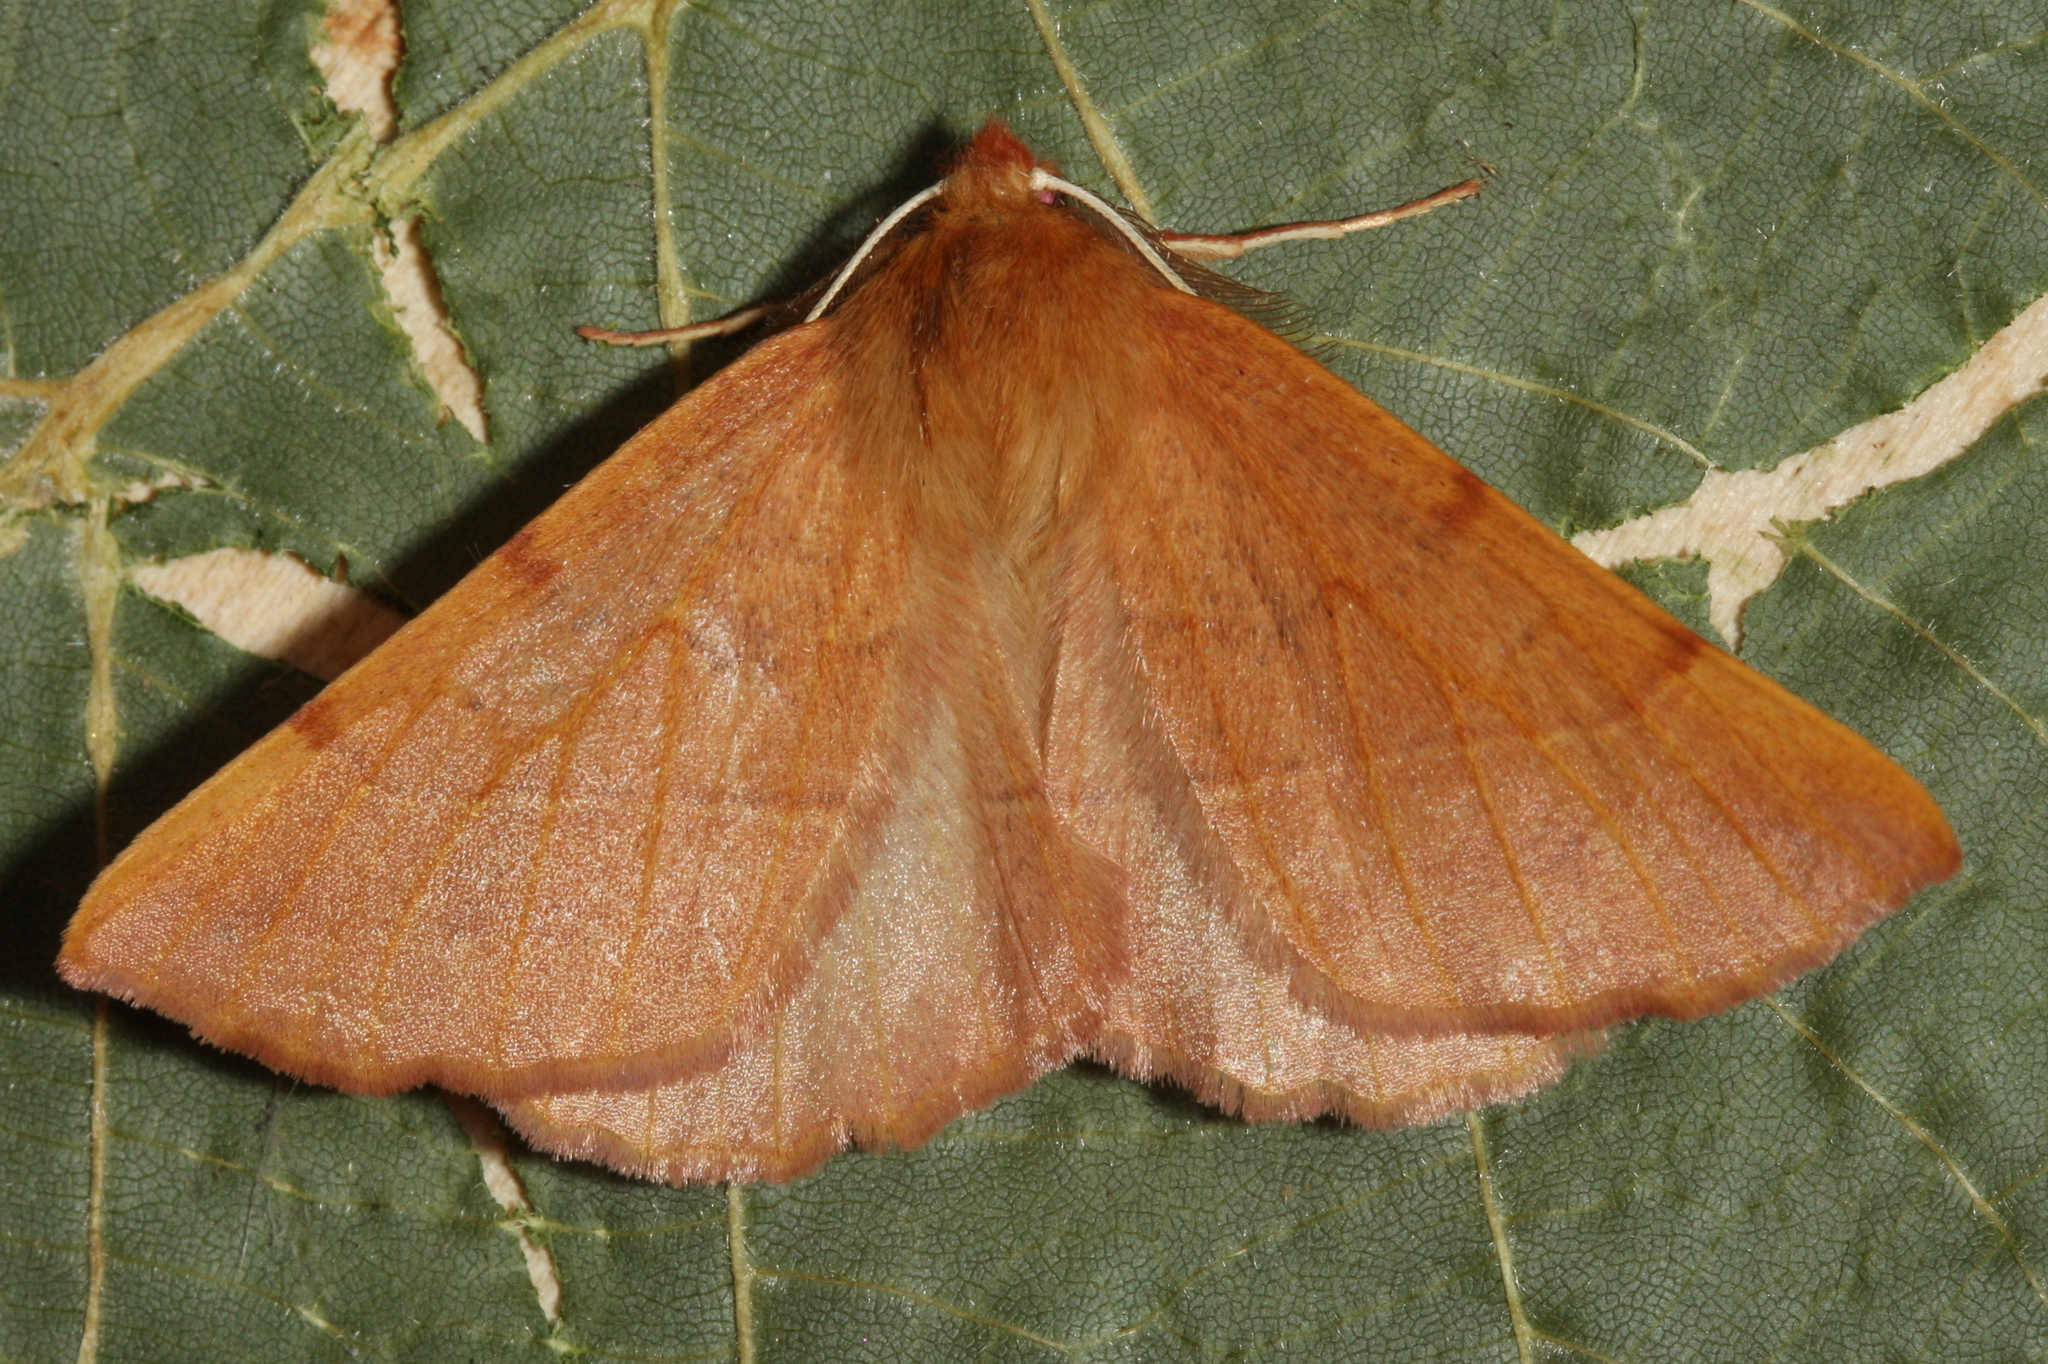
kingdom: Animalia
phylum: Arthropoda
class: Insecta
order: Lepidoptera
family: Geometridae
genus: Colotois
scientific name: Colotois pennaria
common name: Feathered thorn
